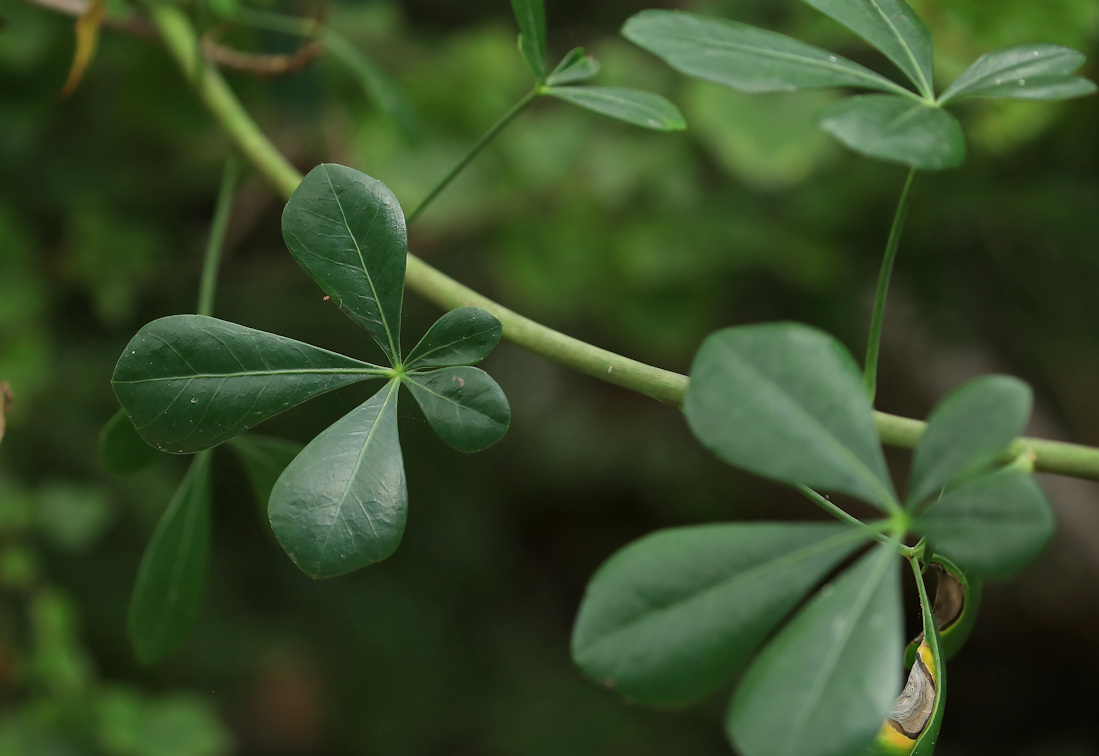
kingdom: Plantae
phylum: Tracheophyta
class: Magnoliopsida
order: Apiales
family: Araliaceae
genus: Cussonia
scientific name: Cussonia thyrsiflora
